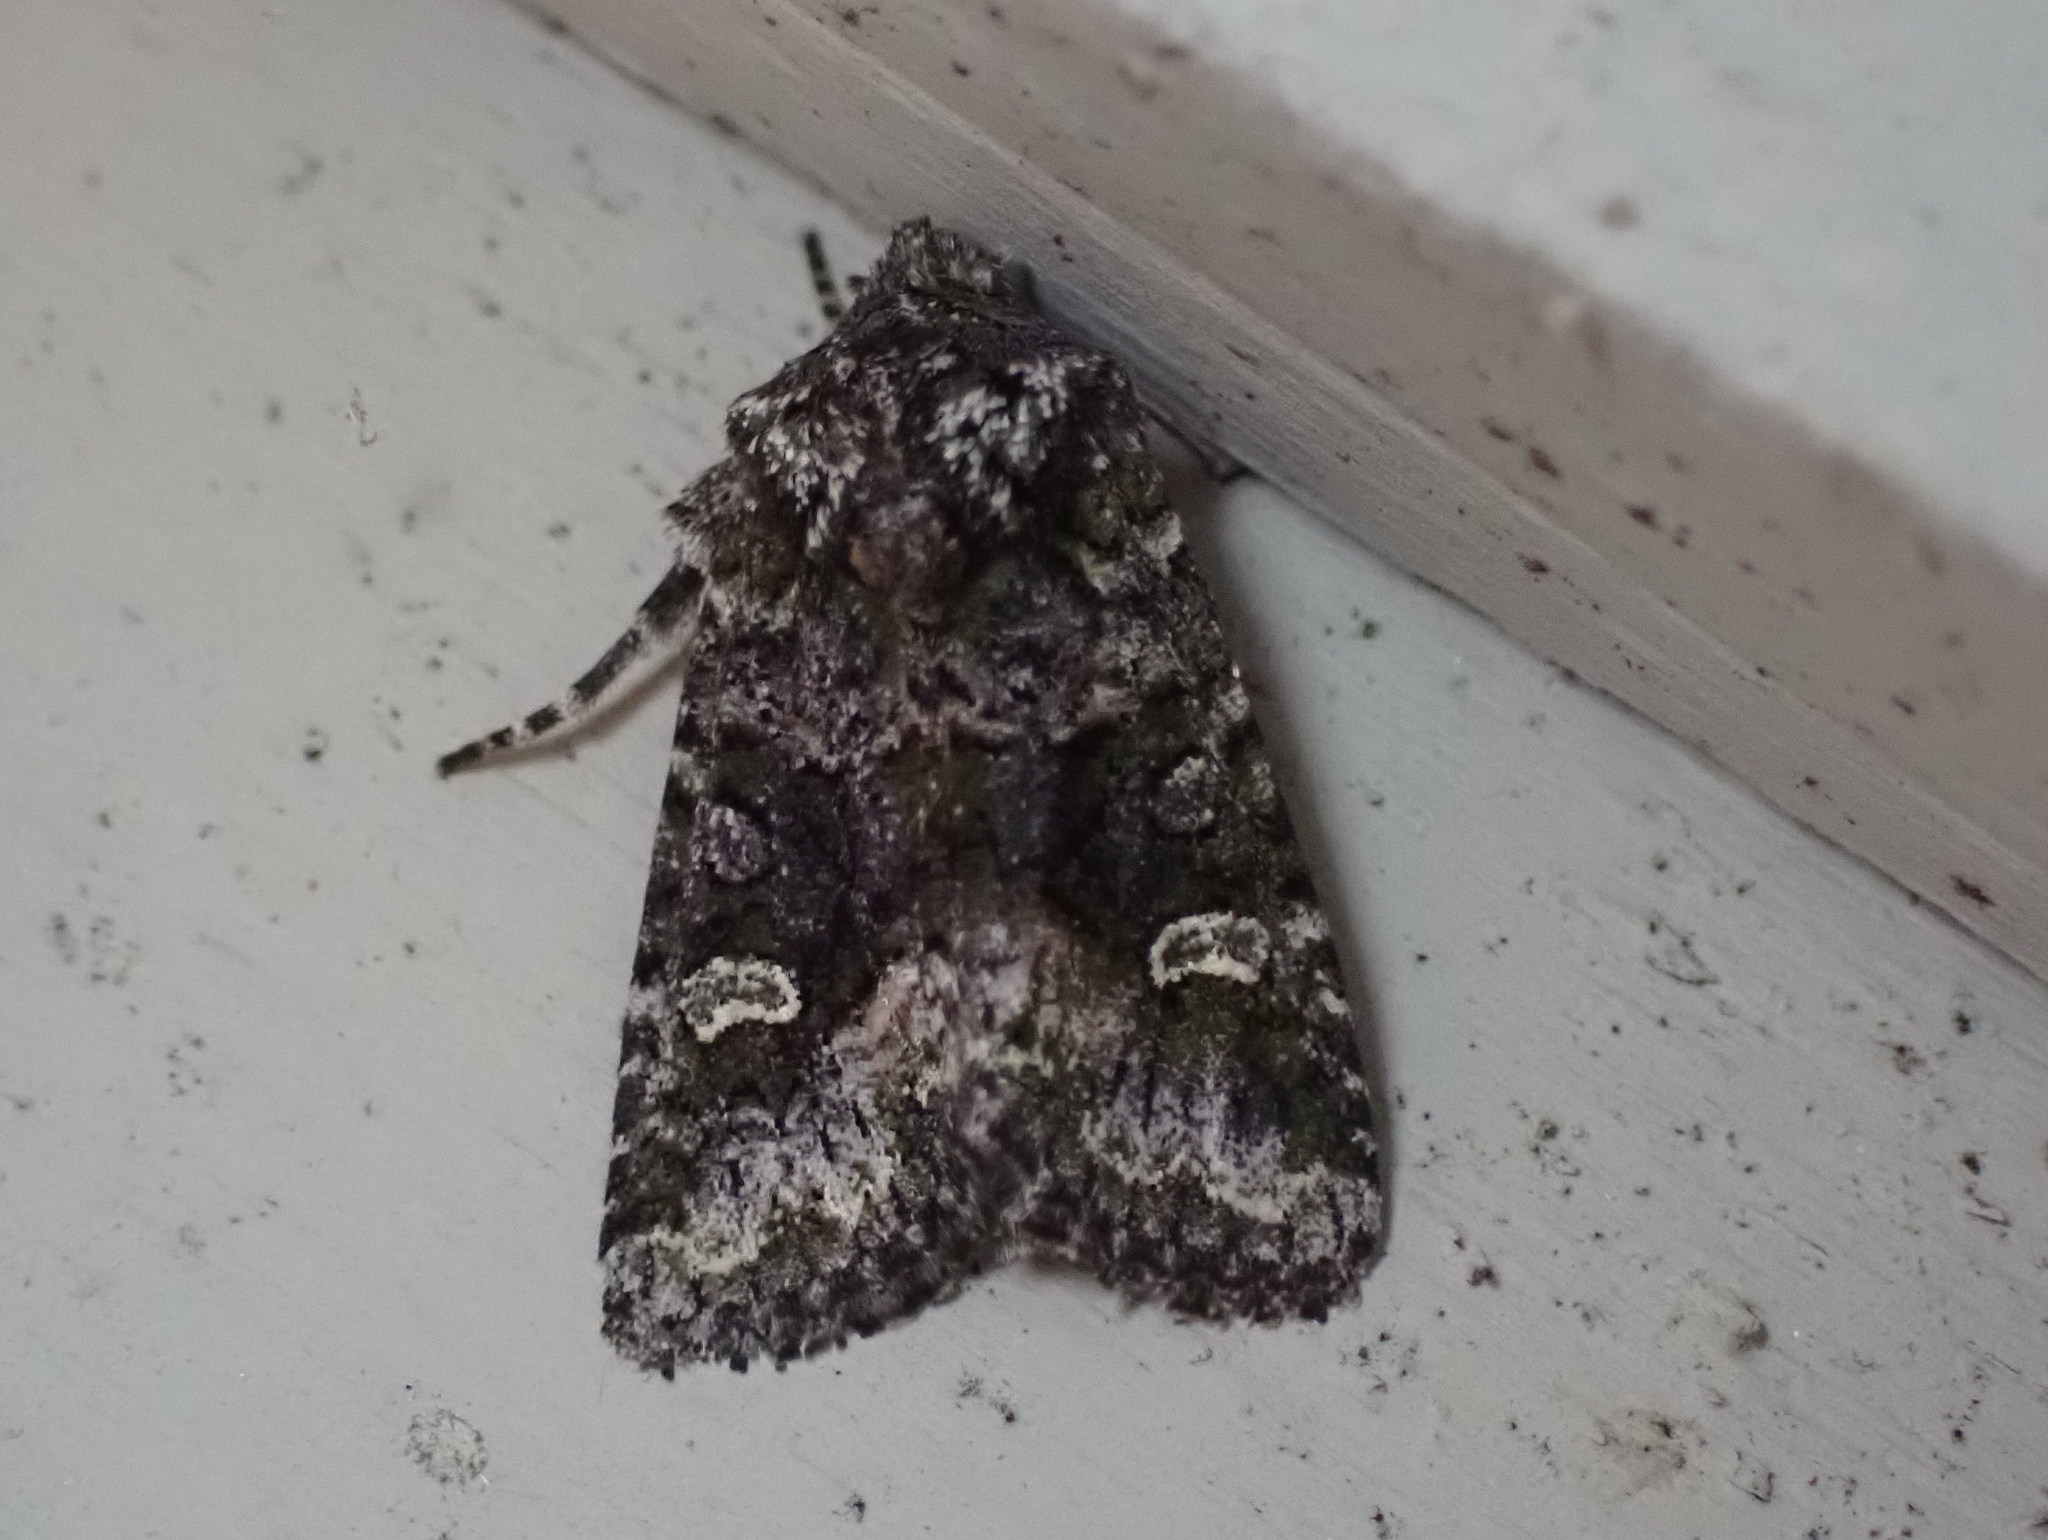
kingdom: Animalia
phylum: Arthropoda
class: Insecta
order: Lepidoptera
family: Noctuidae
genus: Lacinipolia
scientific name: Lacinipolia olivacea
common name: Olive arches moth
